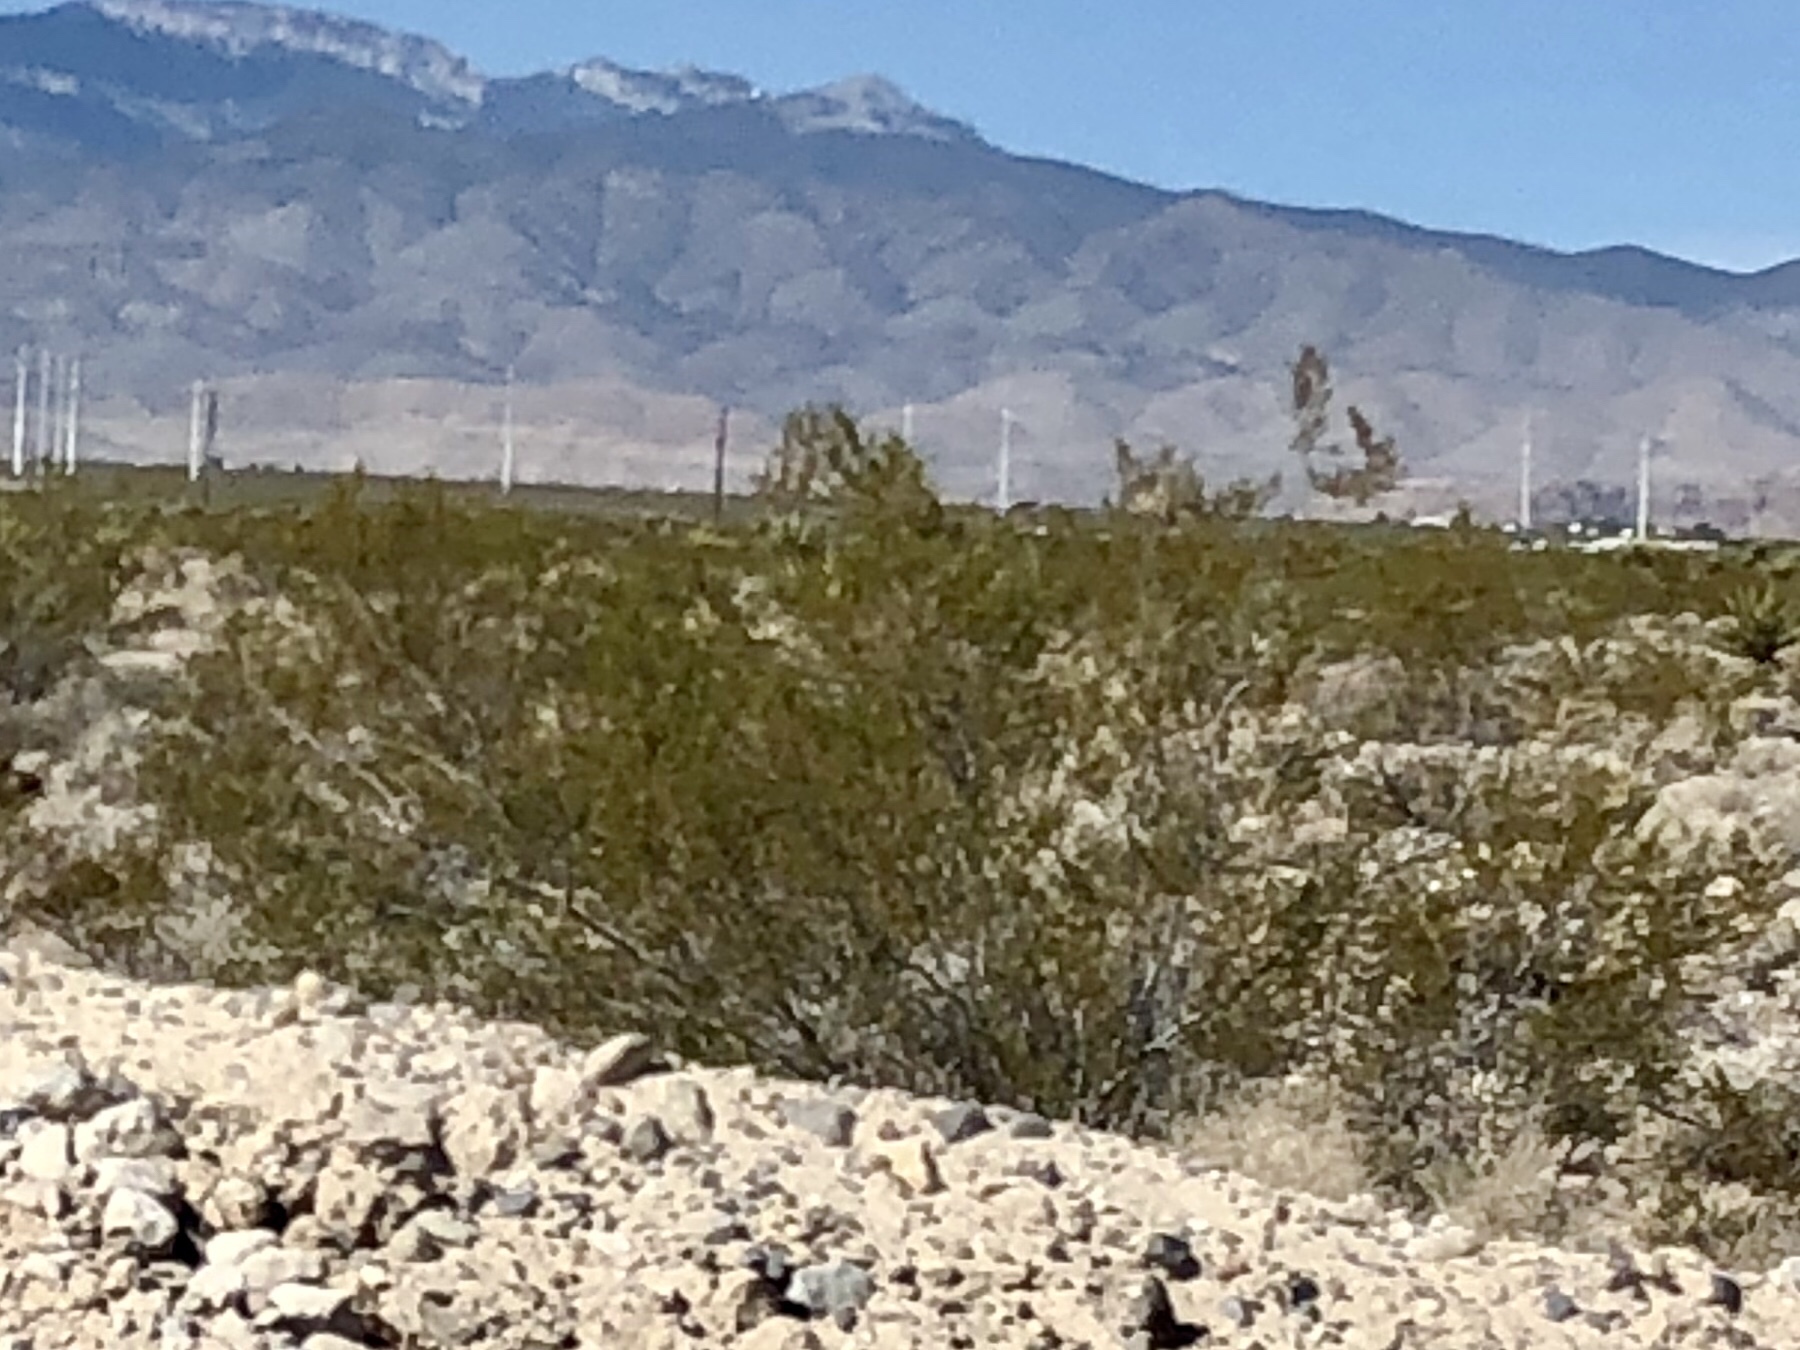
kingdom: Plantae
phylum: Tracheophyta
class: Magnoliopsida
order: Zygophyllales
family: Zygophyllaceae
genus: Larrea
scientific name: Larrea tridentata
